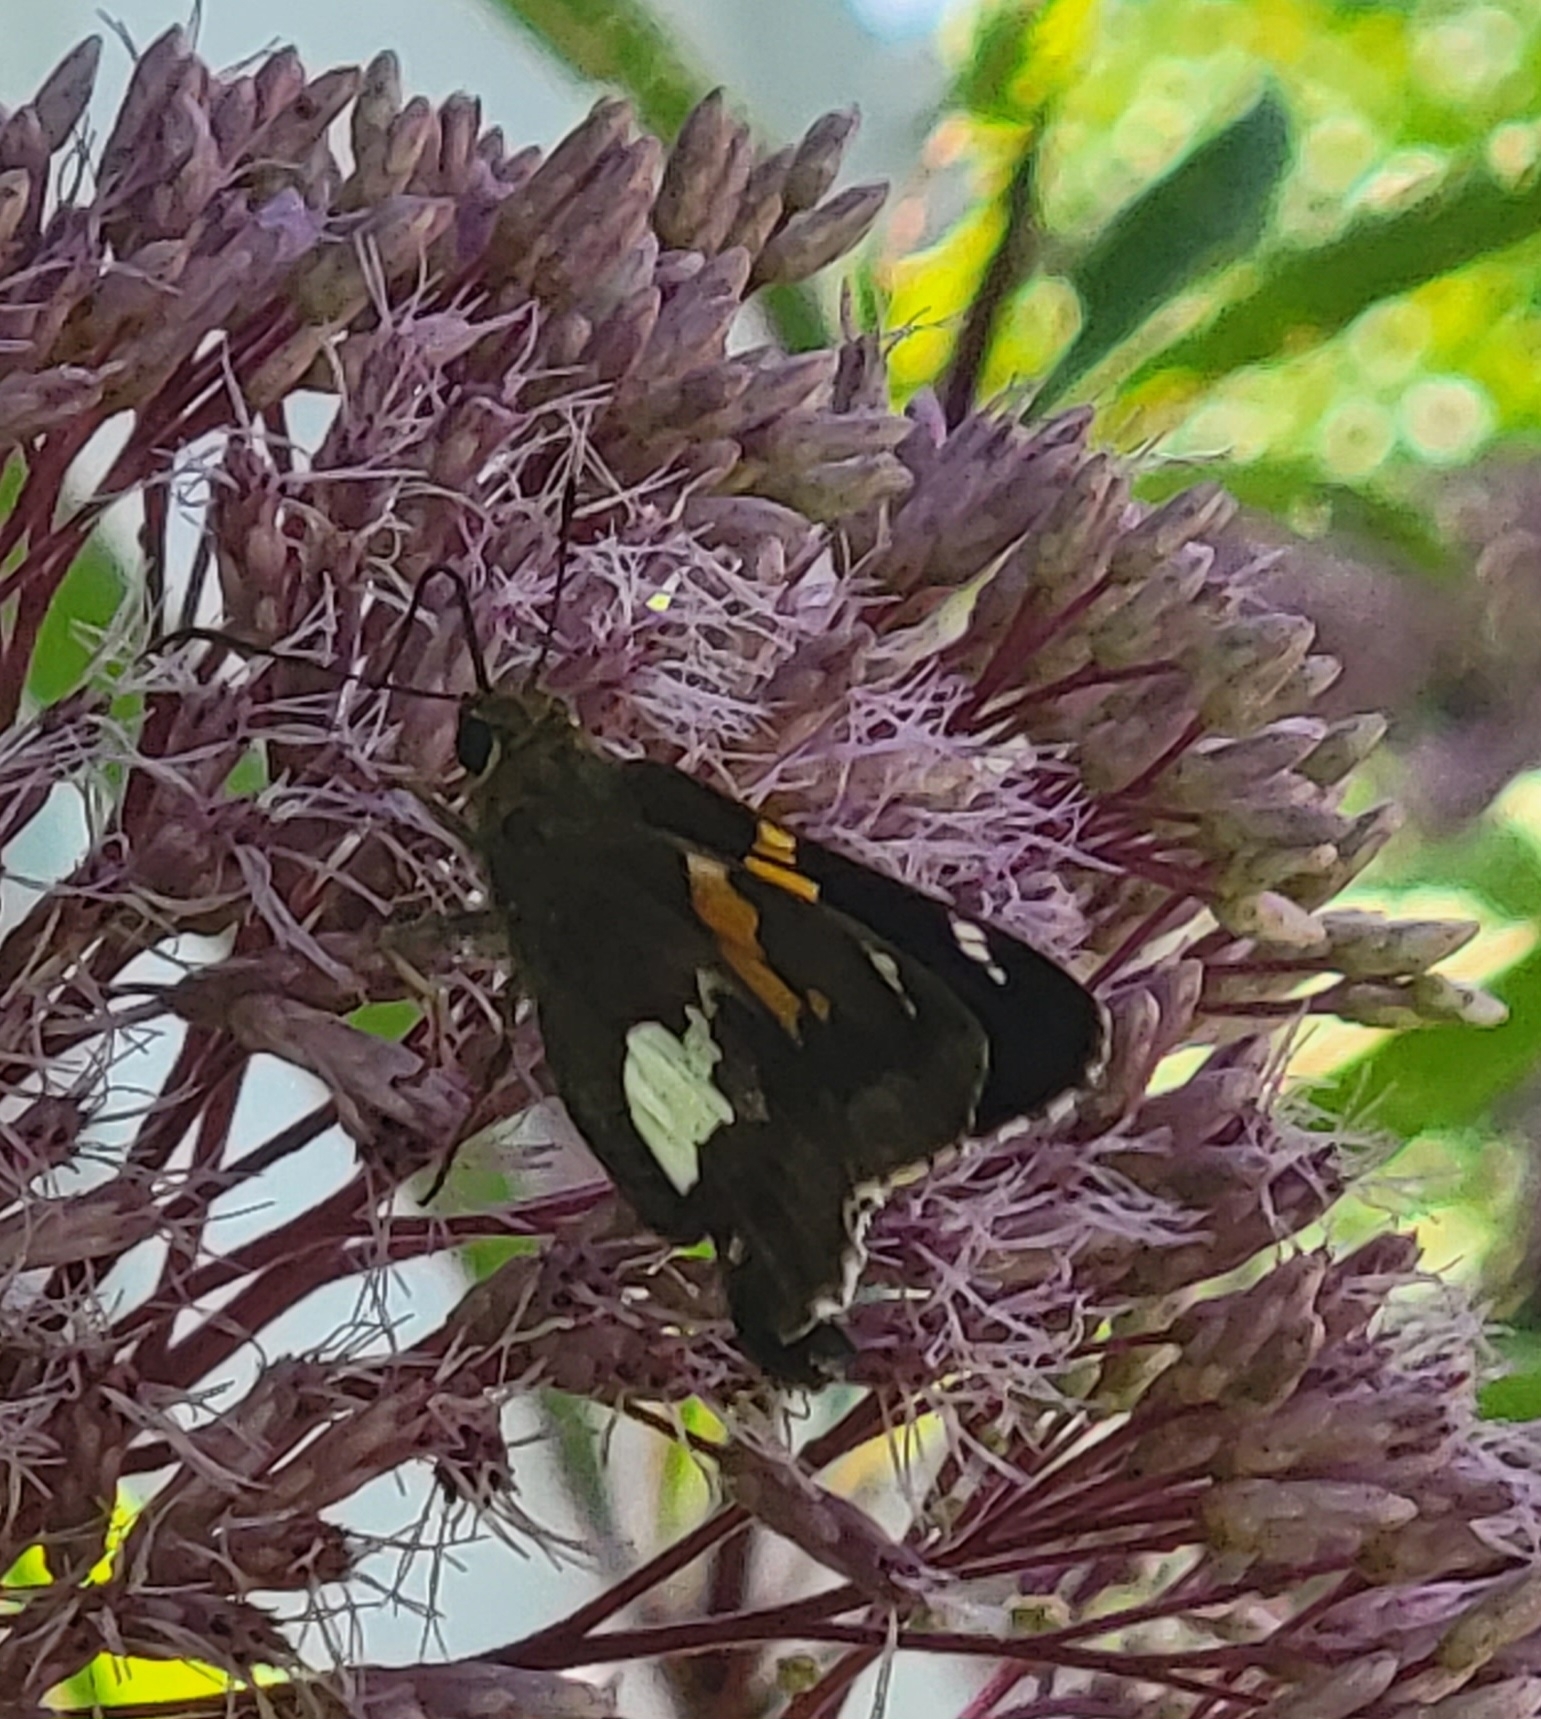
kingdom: Animalia
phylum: Arthropoda
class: Insecta
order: Lepidoptera
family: Hesperiidae
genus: Epargyreus
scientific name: Epargyreus clarus
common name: Silver-spotted skipper
